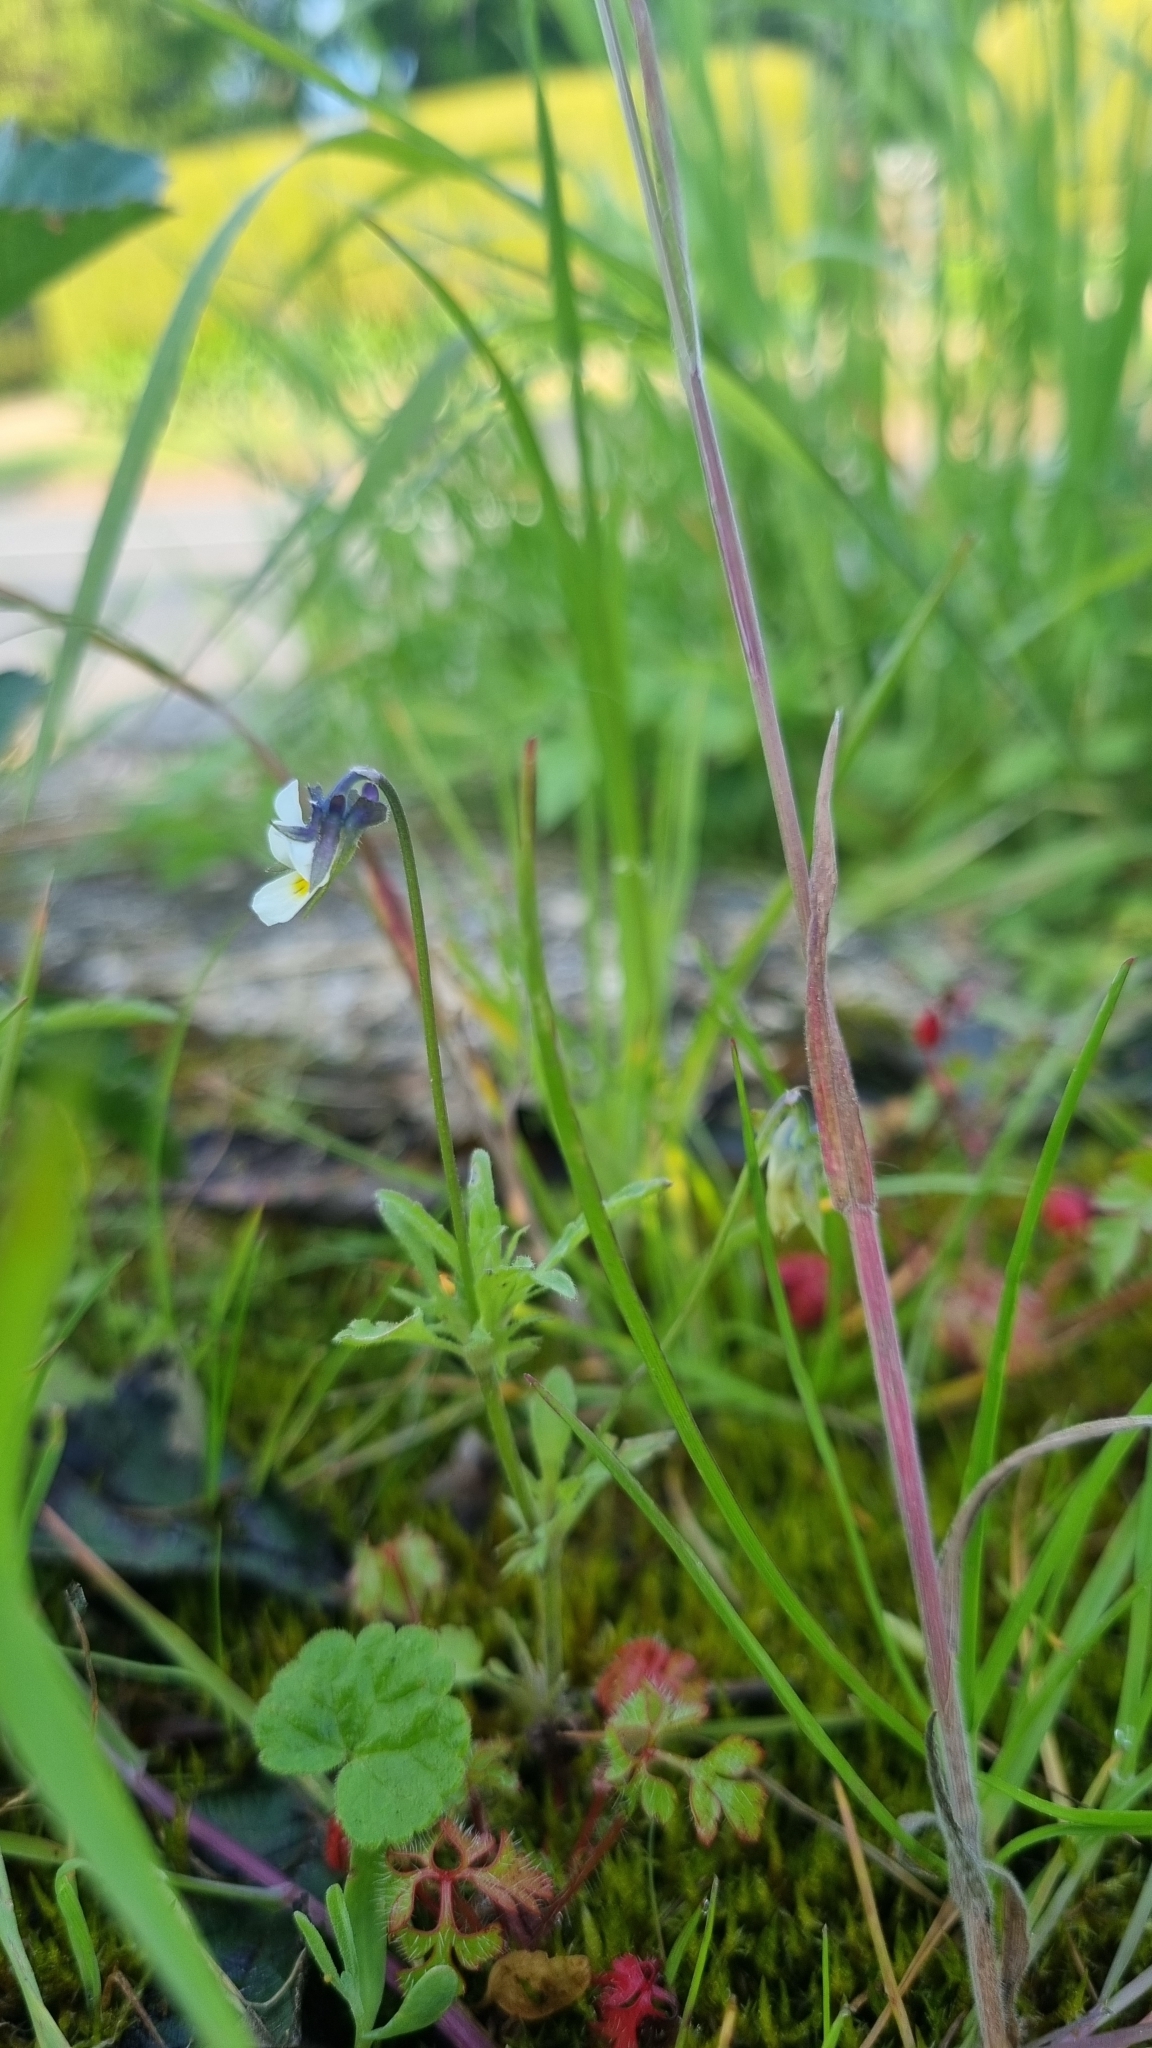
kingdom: Plantae
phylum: Tracheophyta
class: Magnoliopsida
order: Malpighiales
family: Violaceae
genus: Viola
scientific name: Viola arvensis
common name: Field pansy
